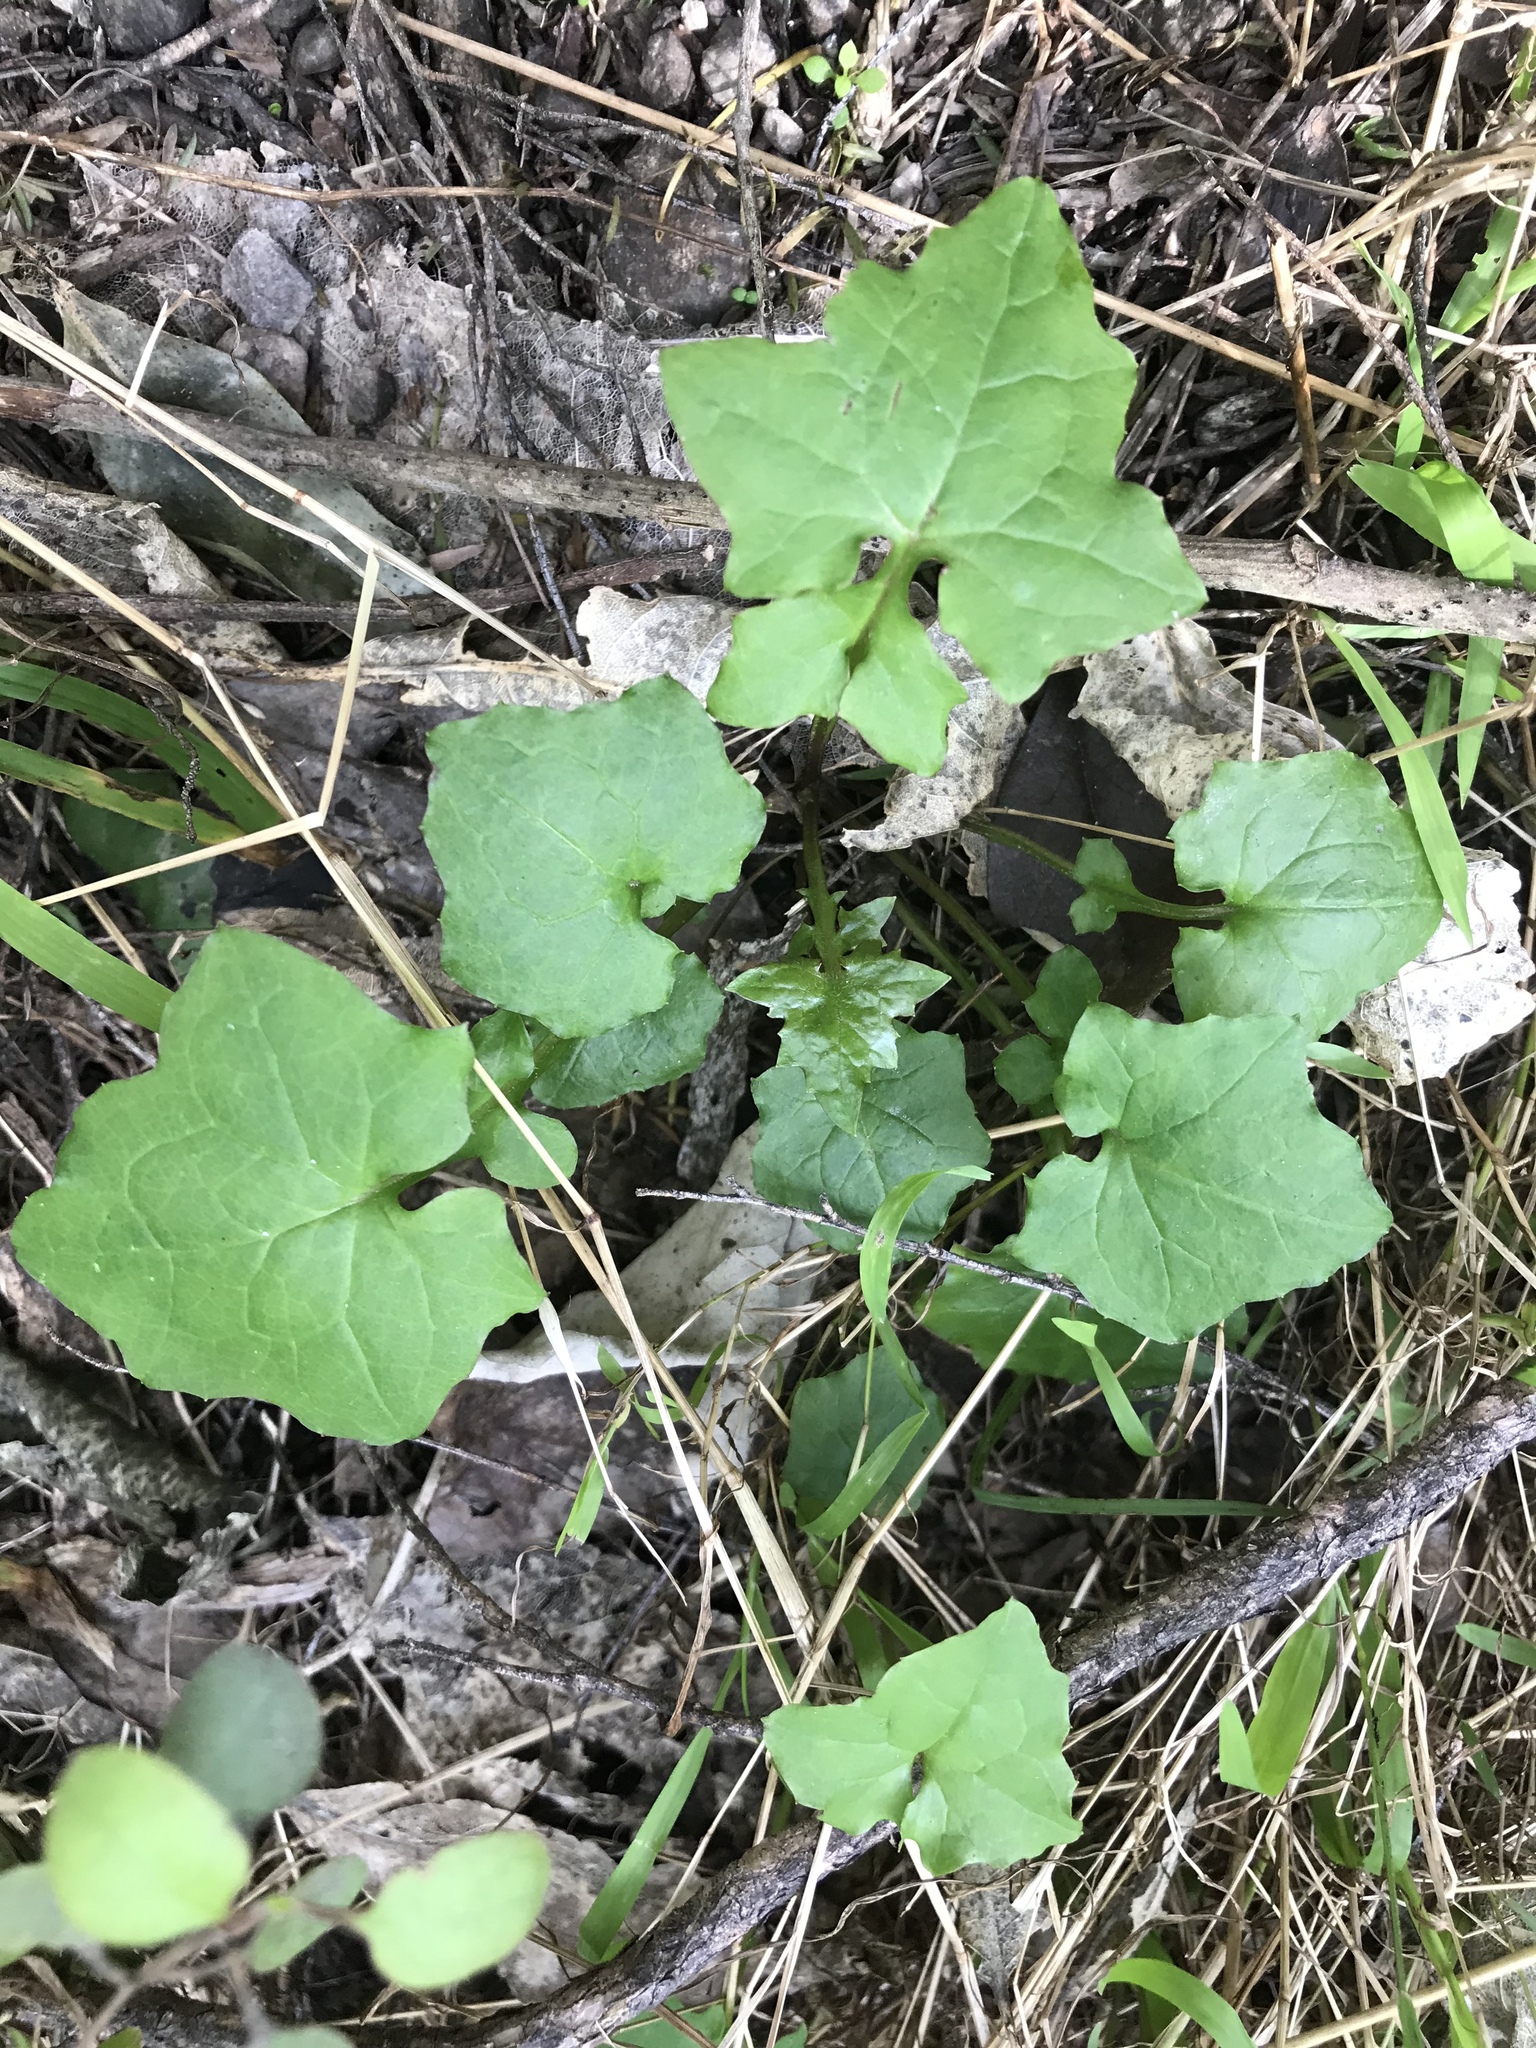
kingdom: Plantae
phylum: Tracheophyta
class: Magnoliopsida
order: Asterales
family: Asteraceae
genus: Mycelis
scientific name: Mycelis muralis
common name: Wall lettuce
